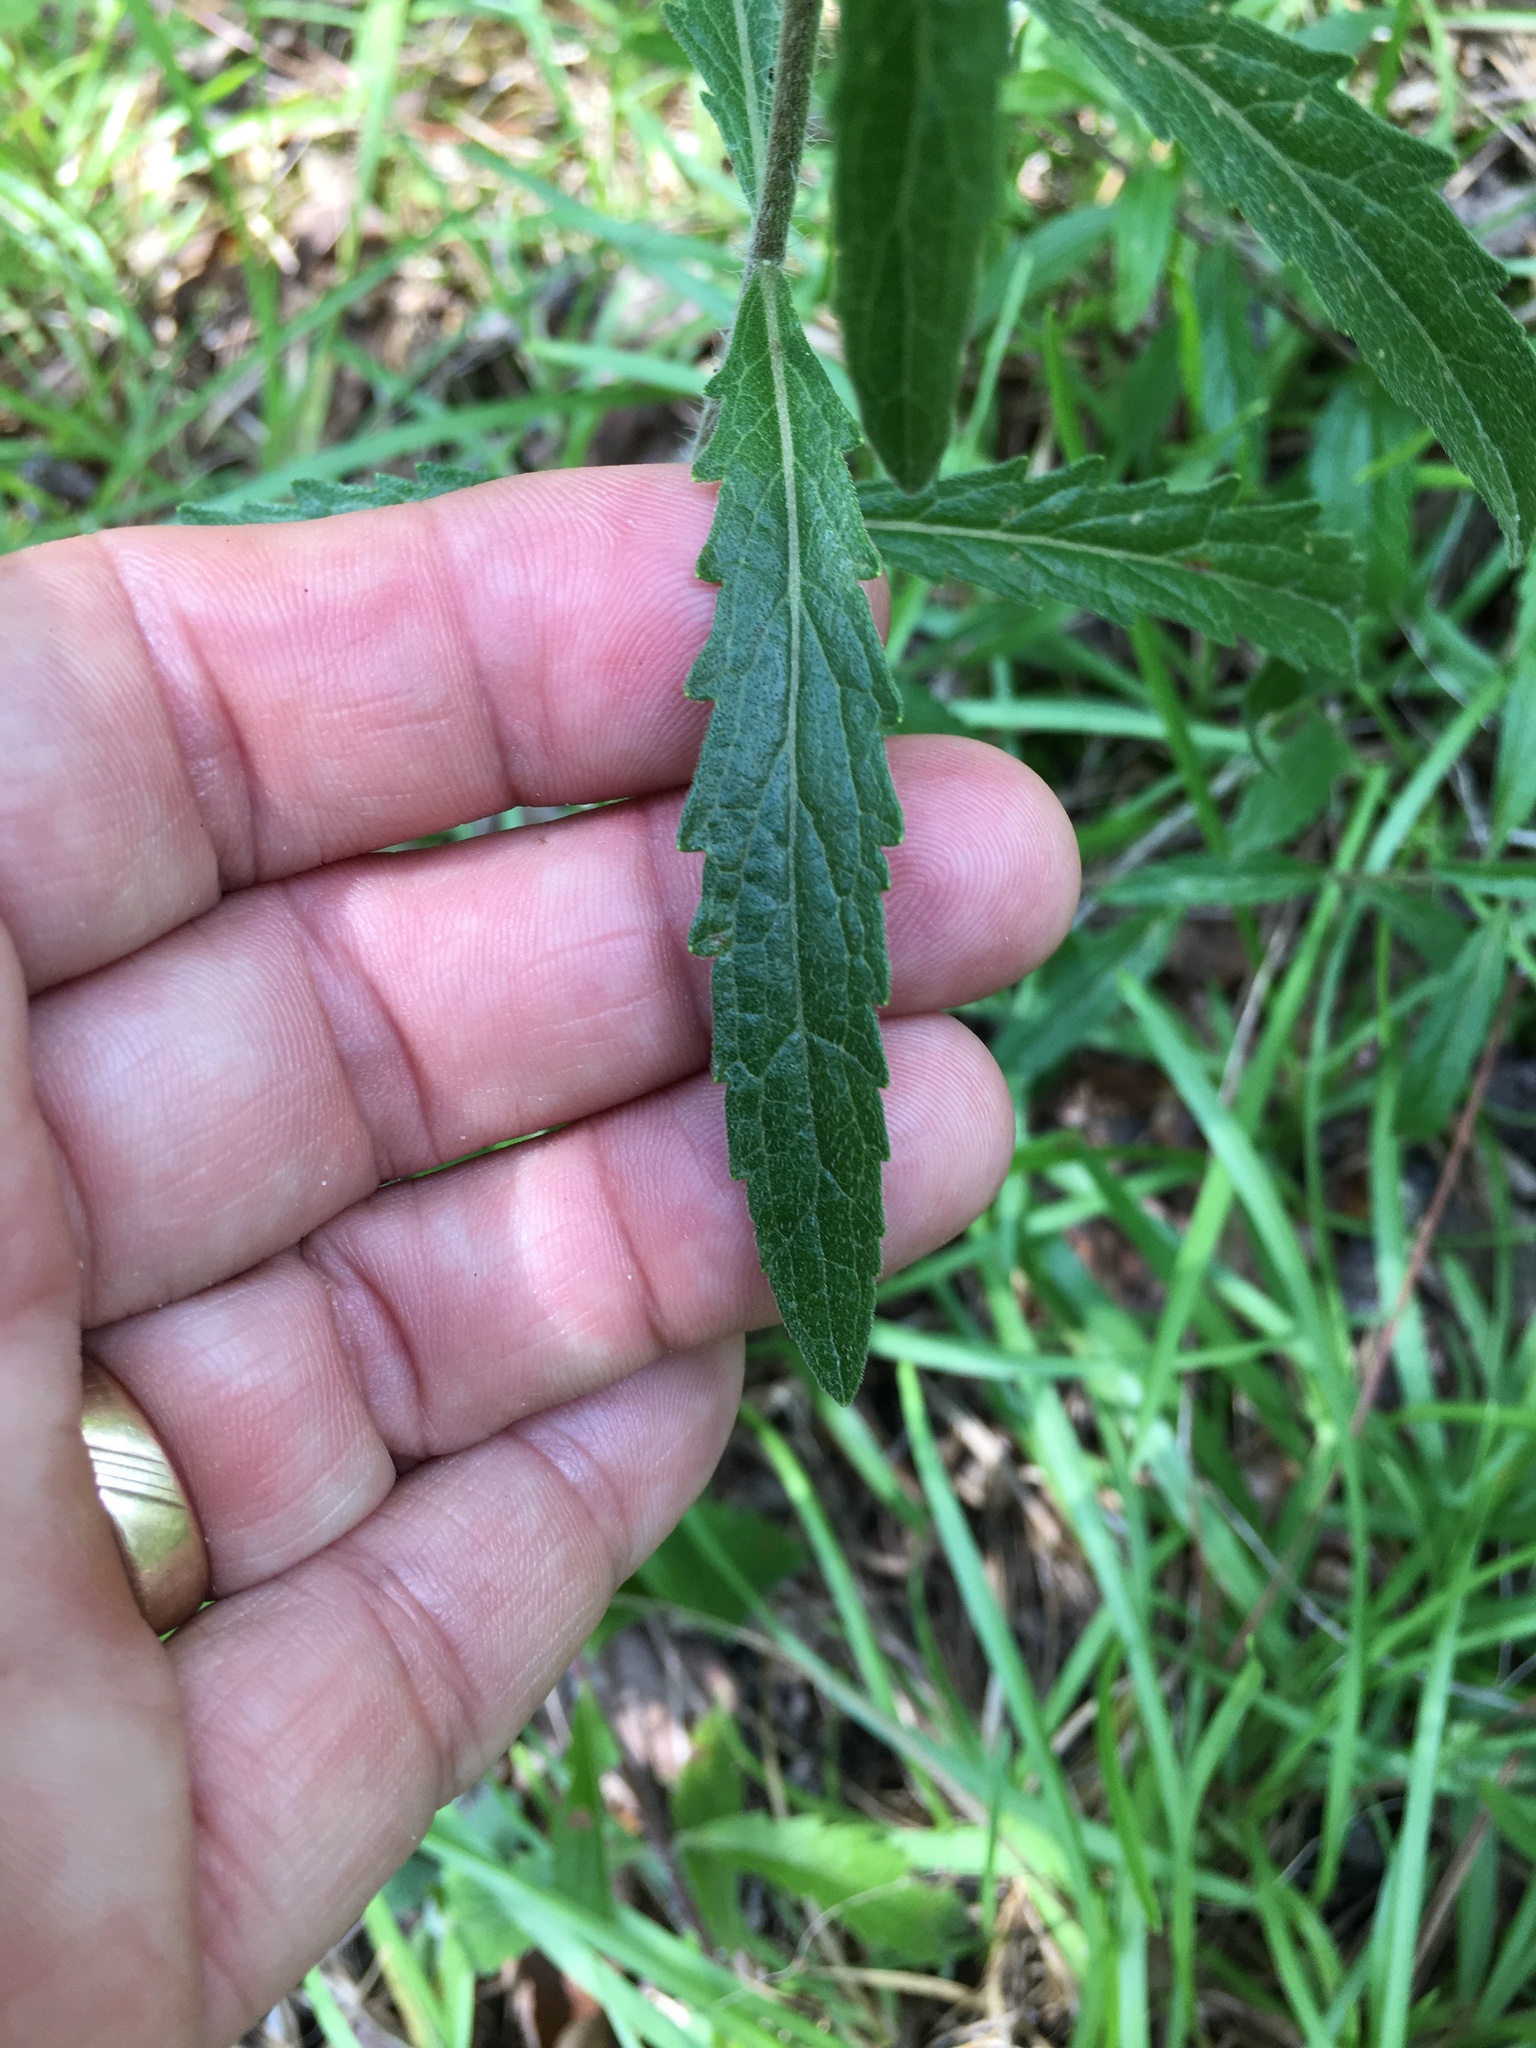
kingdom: Plantae
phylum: Tracheophyta
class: Magnoliopsida
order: Asterales
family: Asteraceae
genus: Eupatorium
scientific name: Eupatorium album
